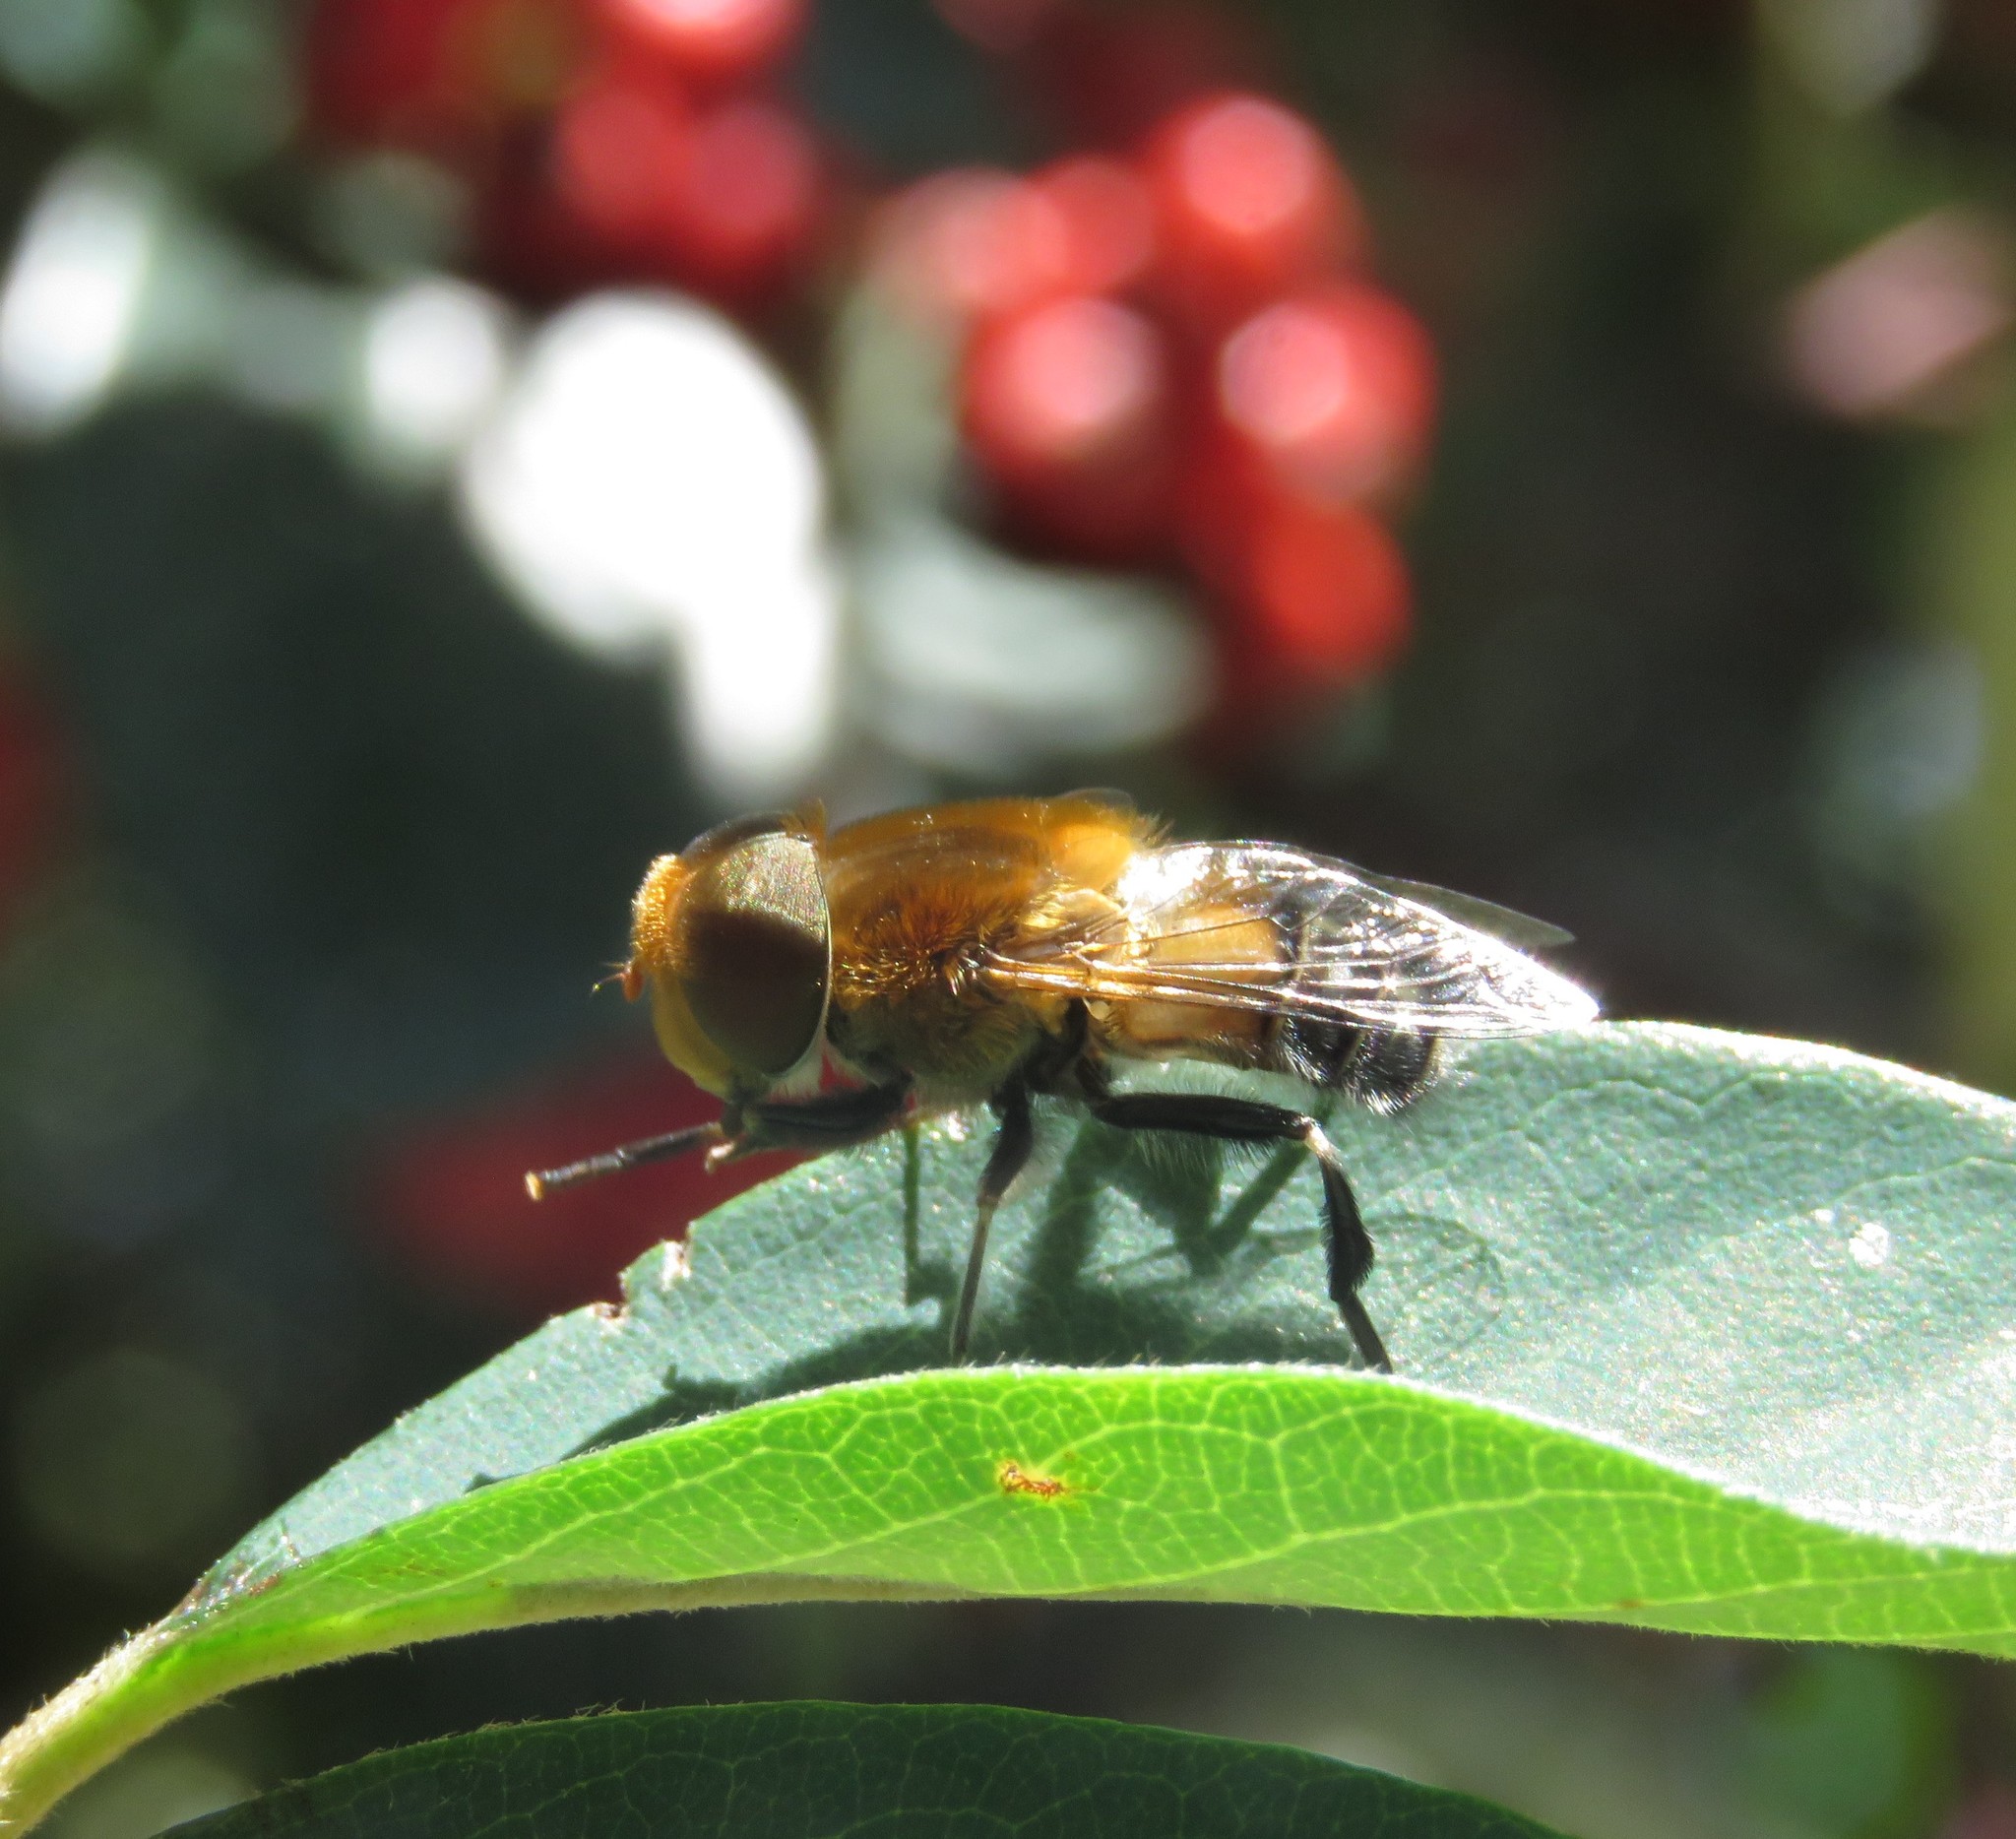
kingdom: Animalia
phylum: Arthropoda
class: Insecta
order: Diptera
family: Syrphidae
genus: Palpada
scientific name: Palpada ruficeps
